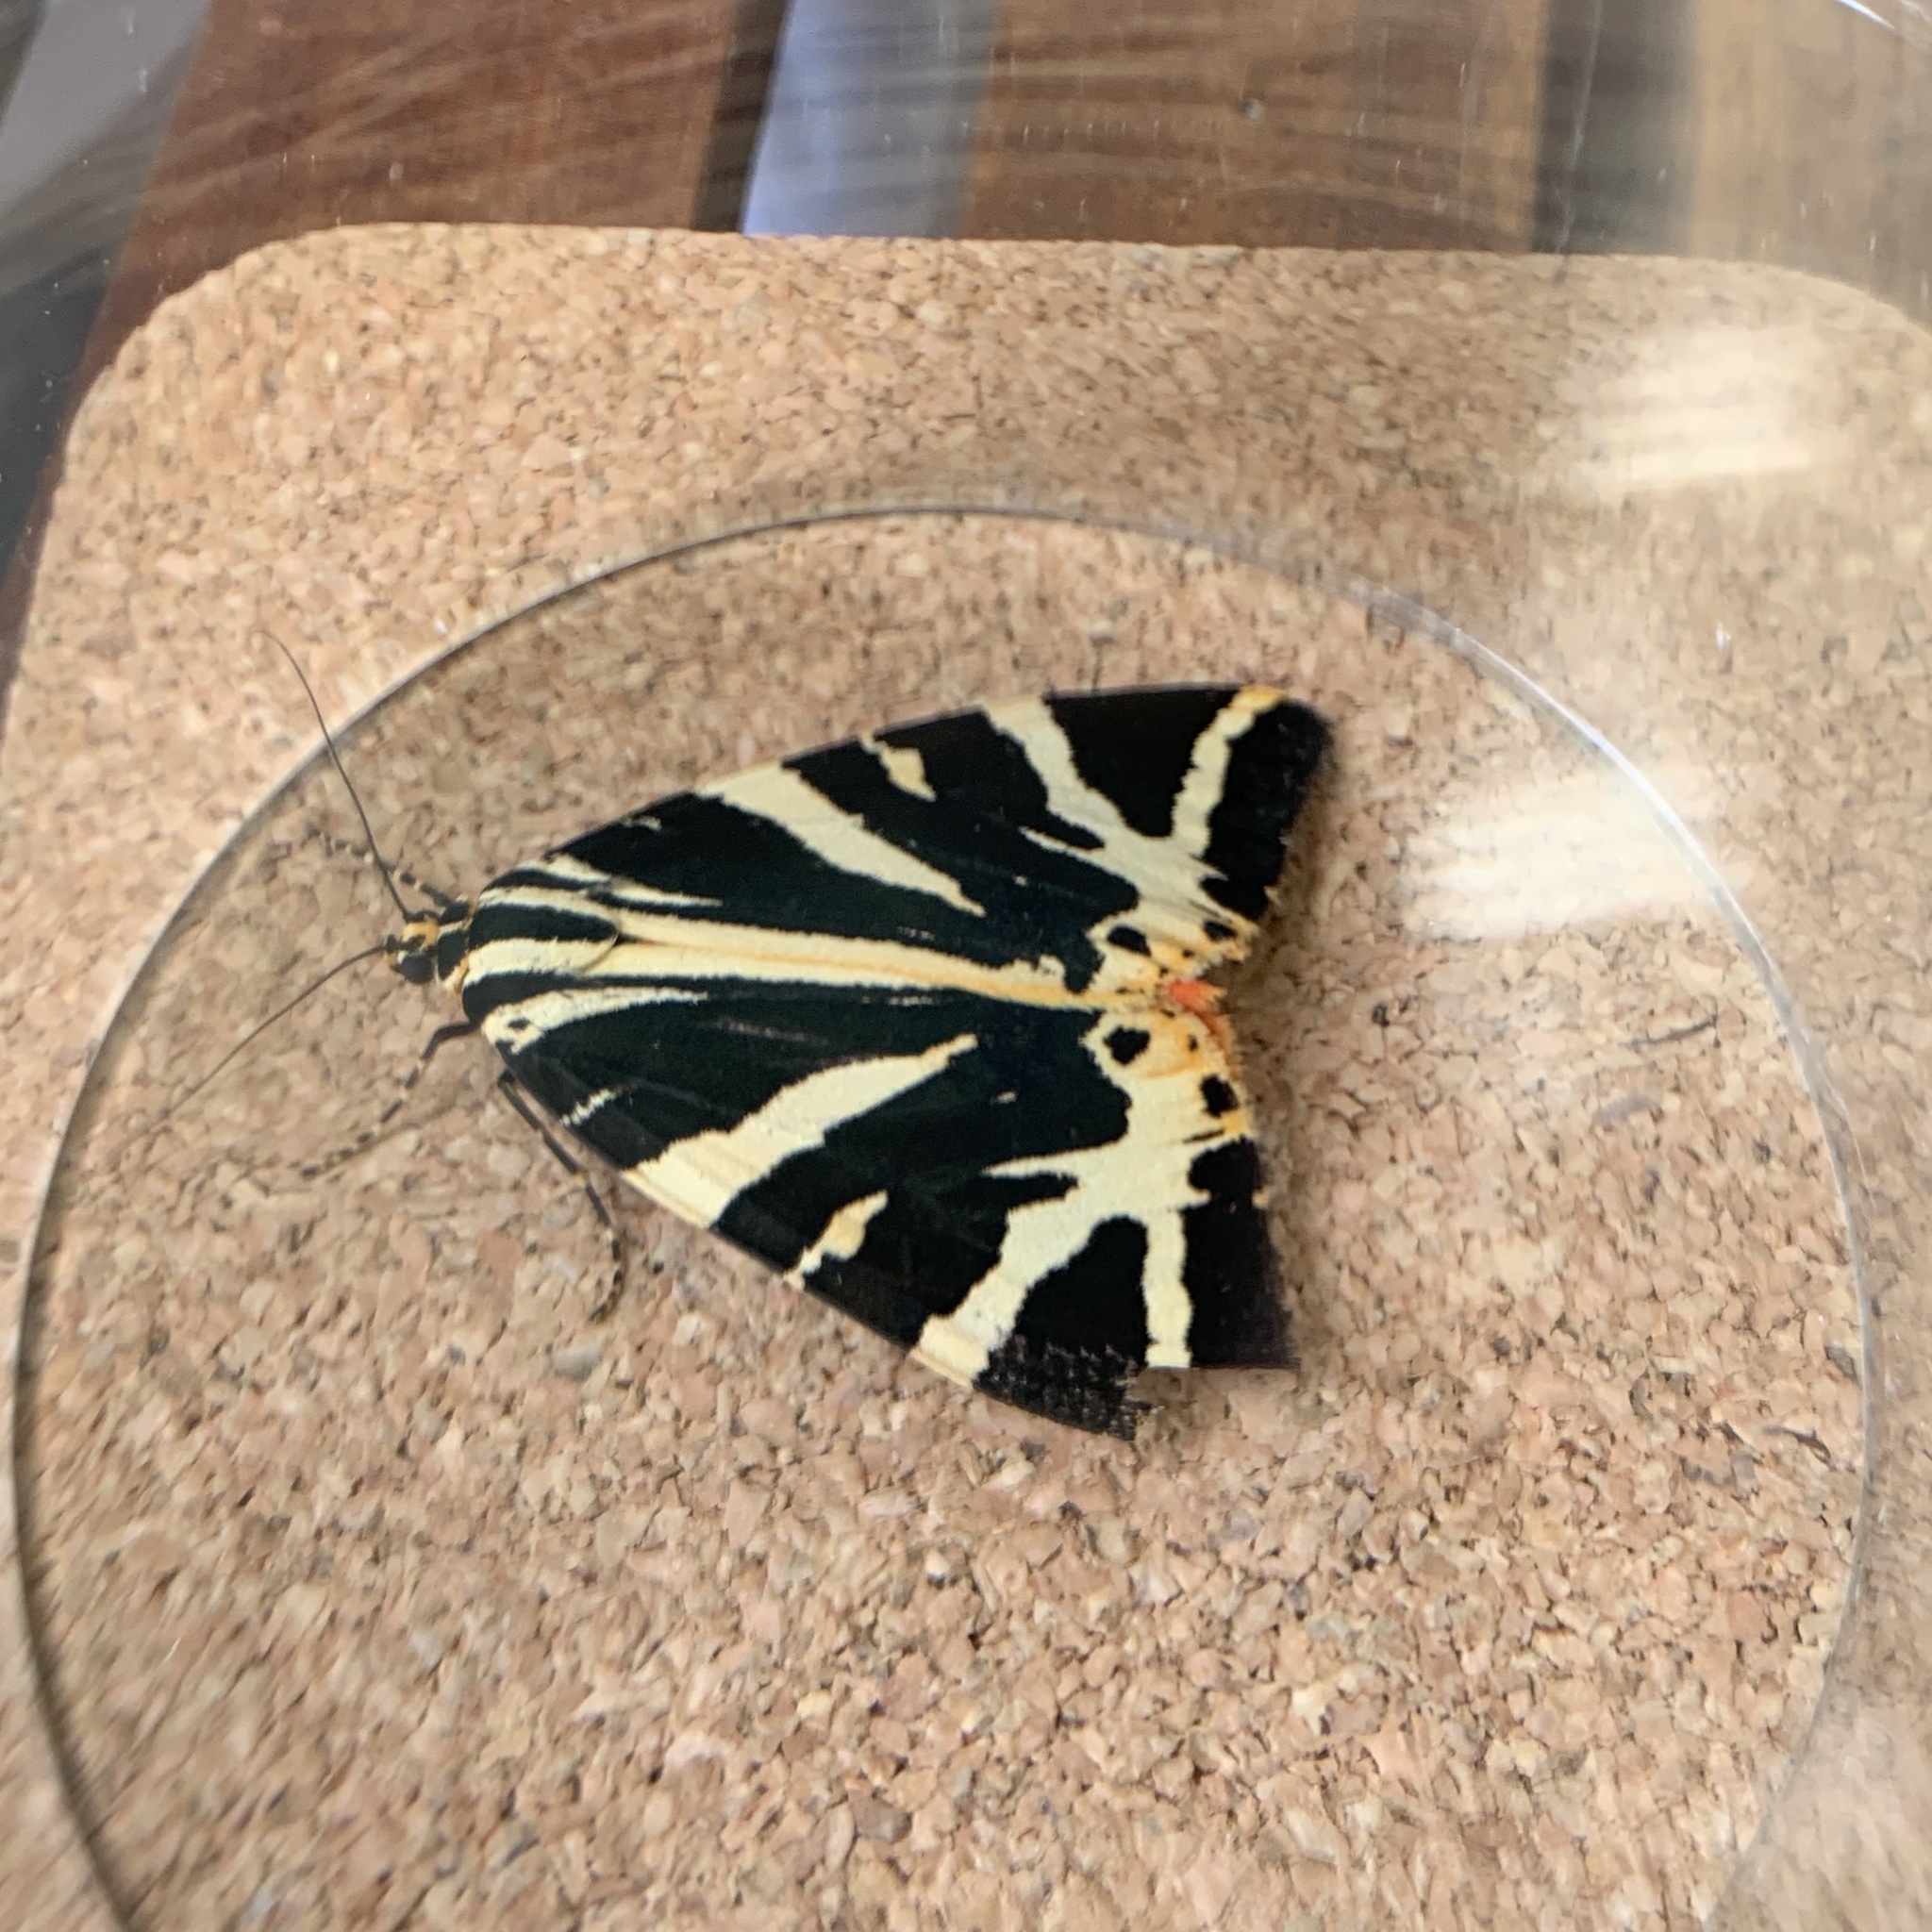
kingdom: Animalia
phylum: Arthropoda
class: Insecta
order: Lepidoptera
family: Erebidae
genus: Euplagia
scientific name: Euplagia quadripunctaria
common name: Jersey tiger
